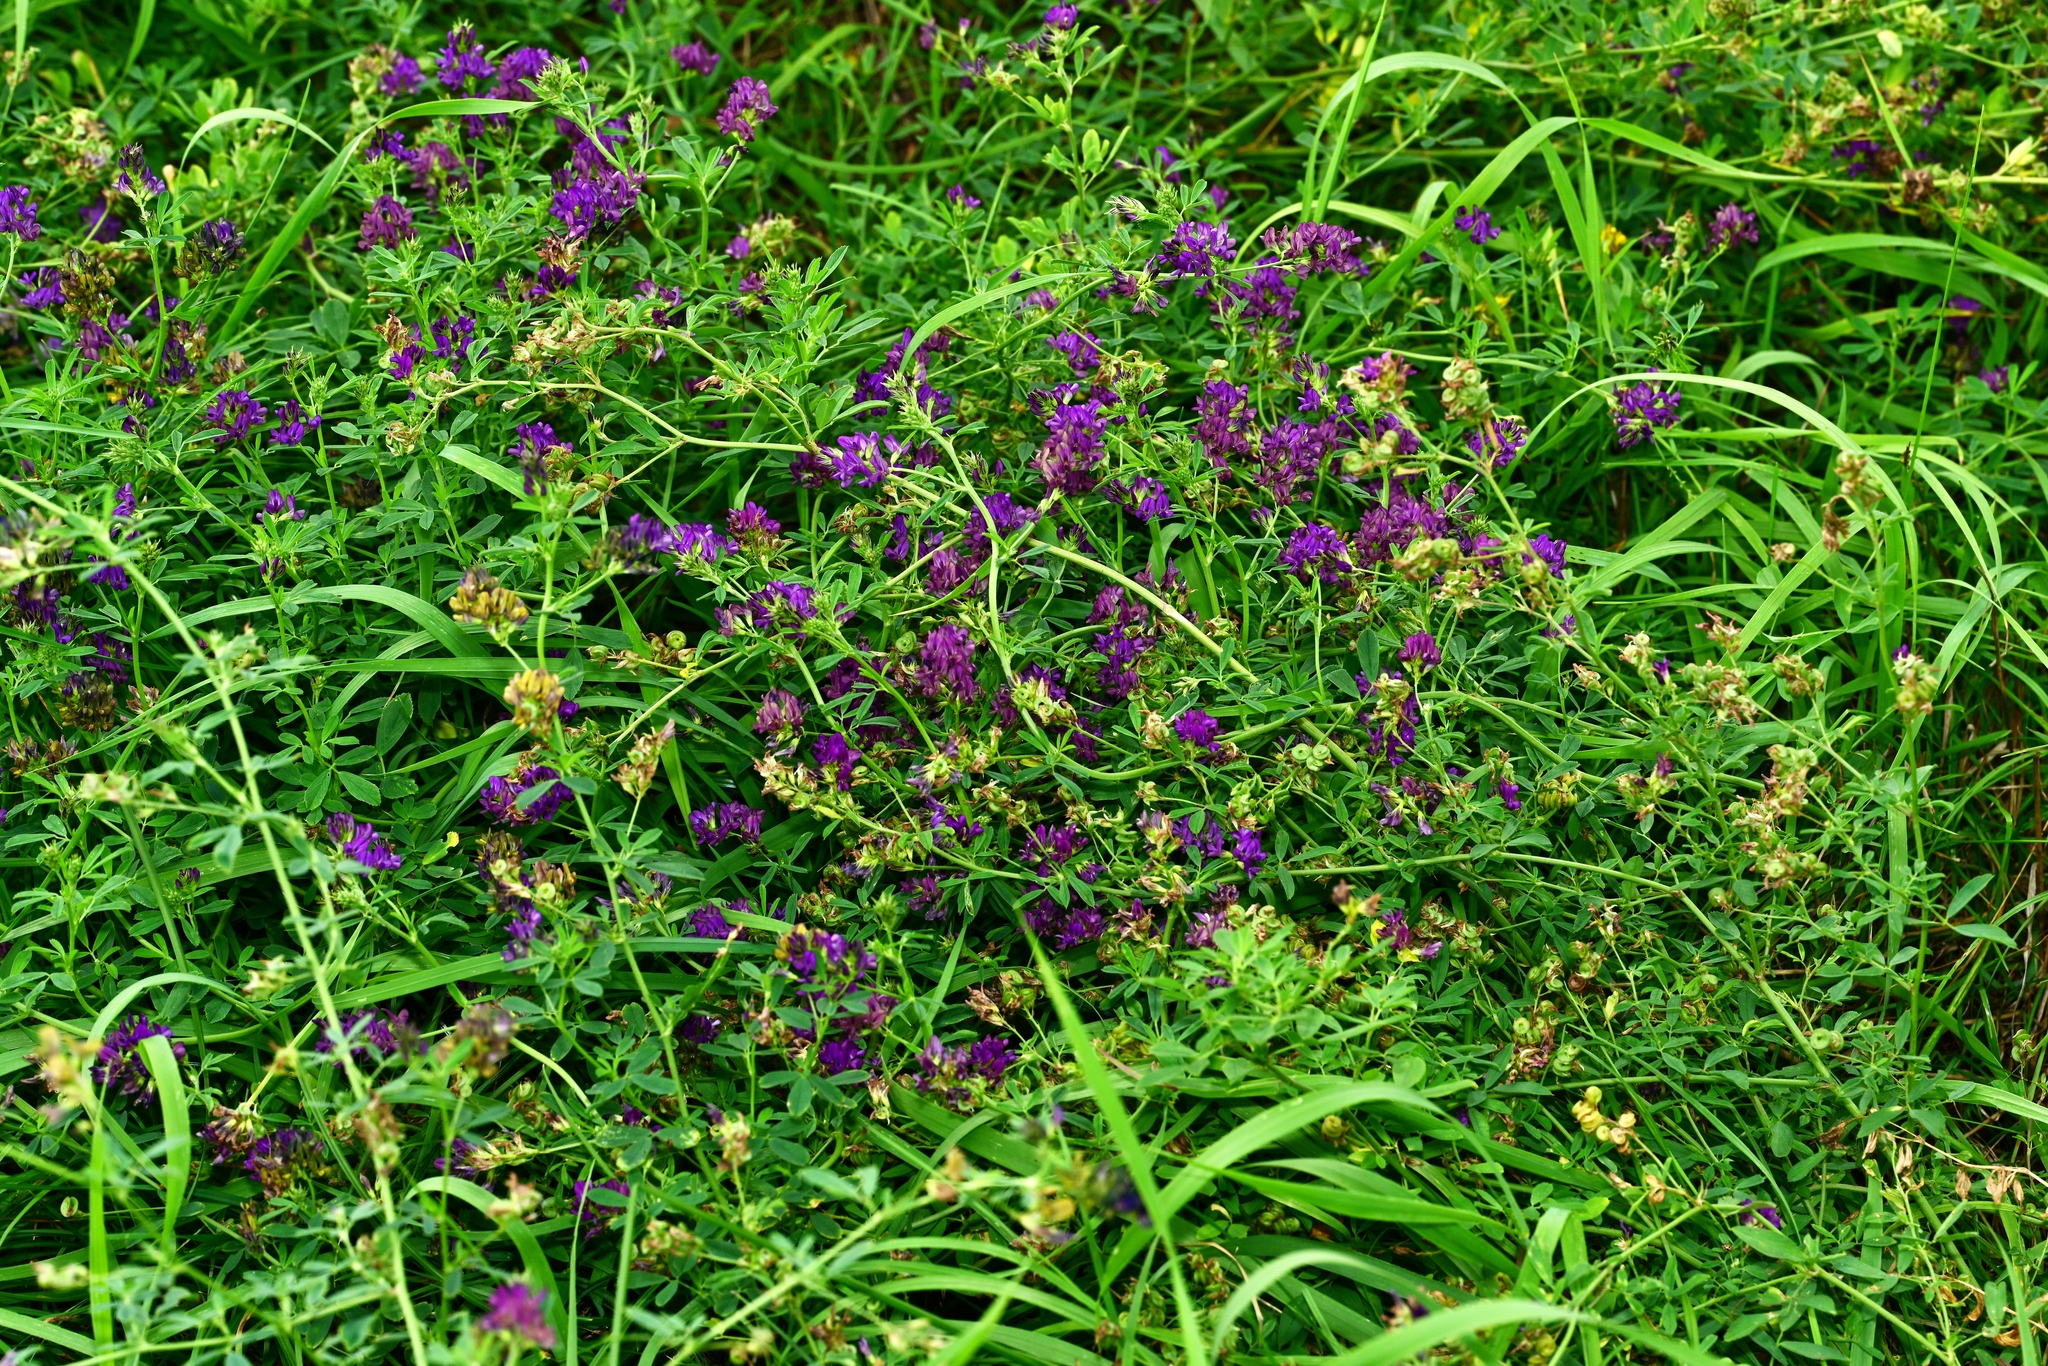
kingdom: Plantae
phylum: Tracheophyta
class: Magnoliopsida
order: Fabales
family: Fabaceae
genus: Medicago
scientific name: Medicago sativa
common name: Alfalfa
